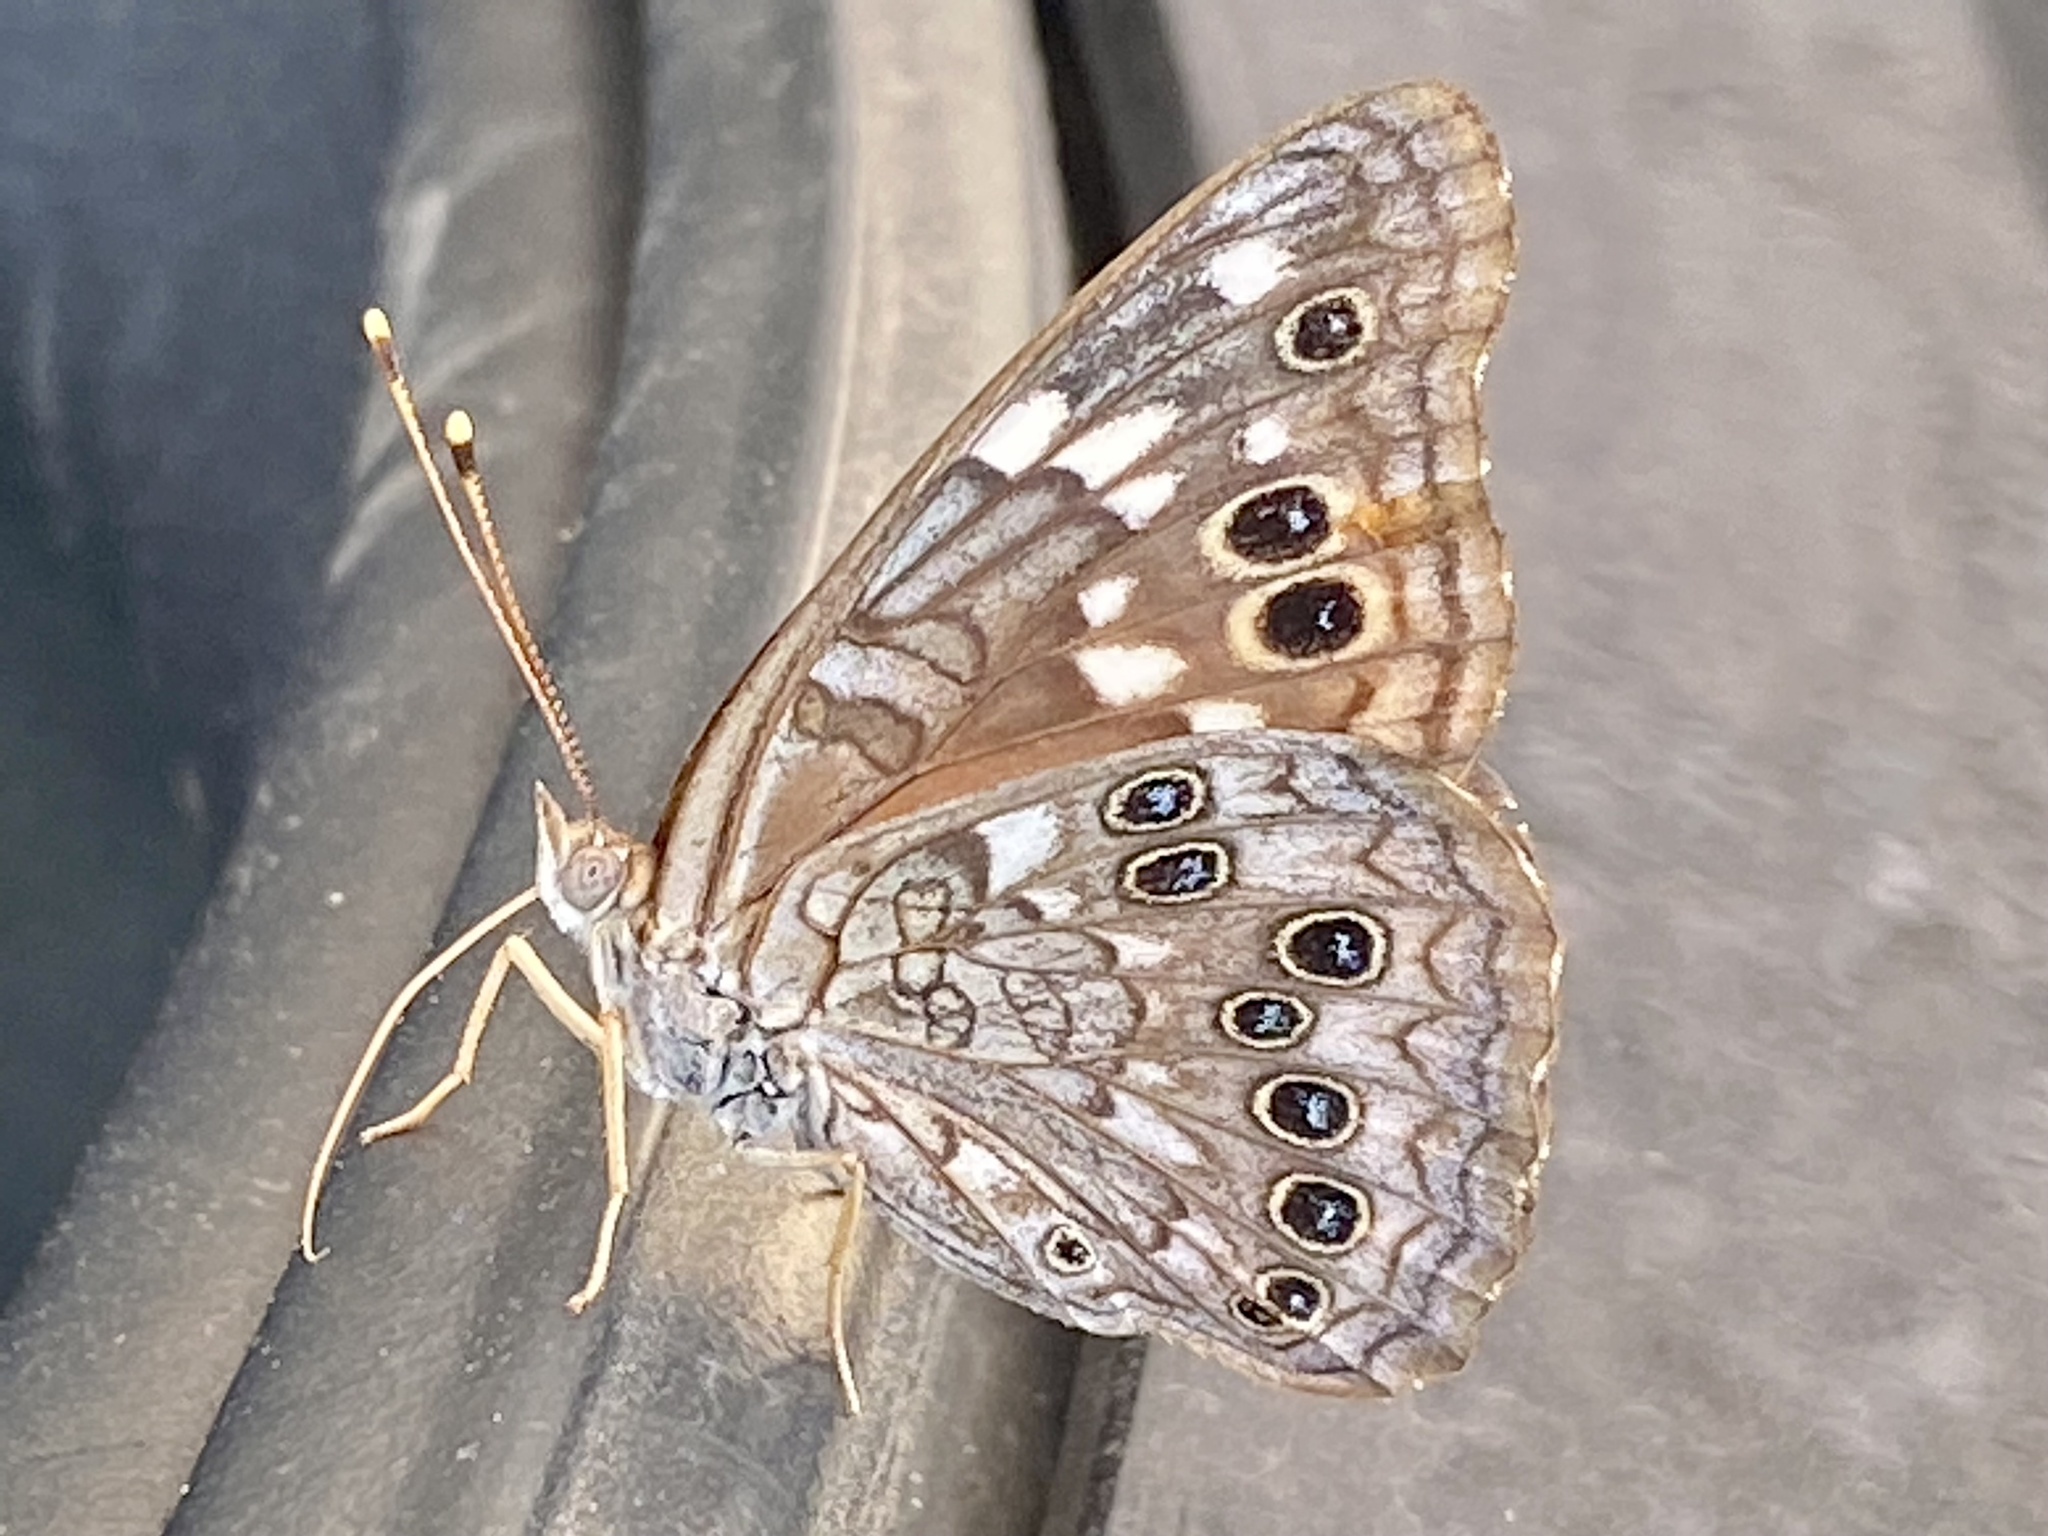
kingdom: Animalia
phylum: Arthropoda
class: Insecta
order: Lepidoptera
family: Nymphalidae
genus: Asterocampa
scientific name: Asterocampa leilia
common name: Empress leilia
